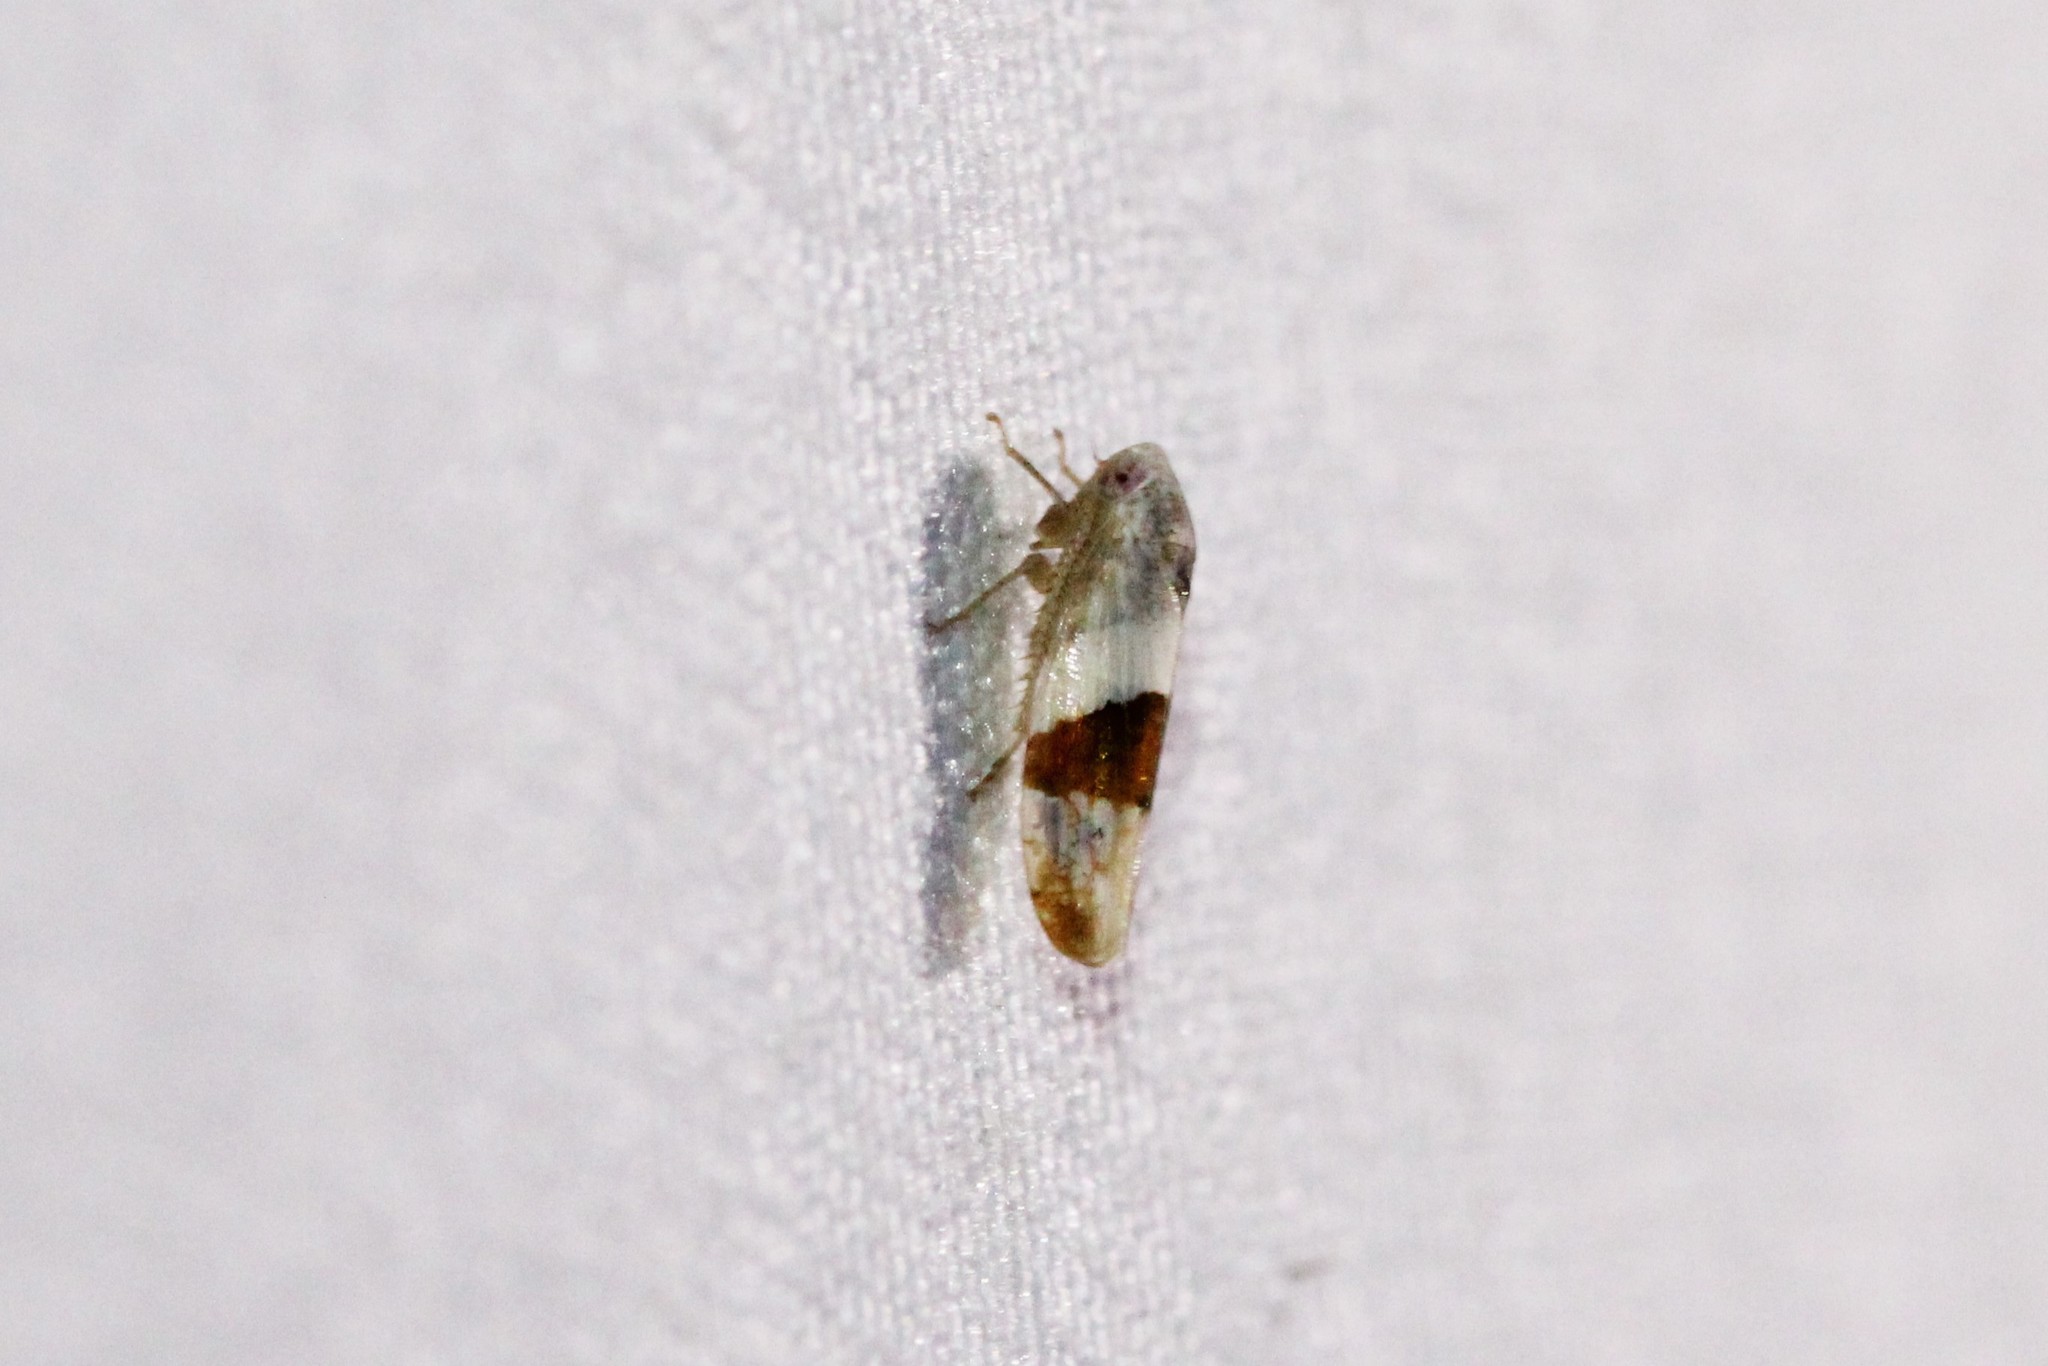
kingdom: Animalia
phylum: Arthropoda
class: Insecta
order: Hemiptera
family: Cicadellidae
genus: Norvellina
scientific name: Norvellina seminuda
